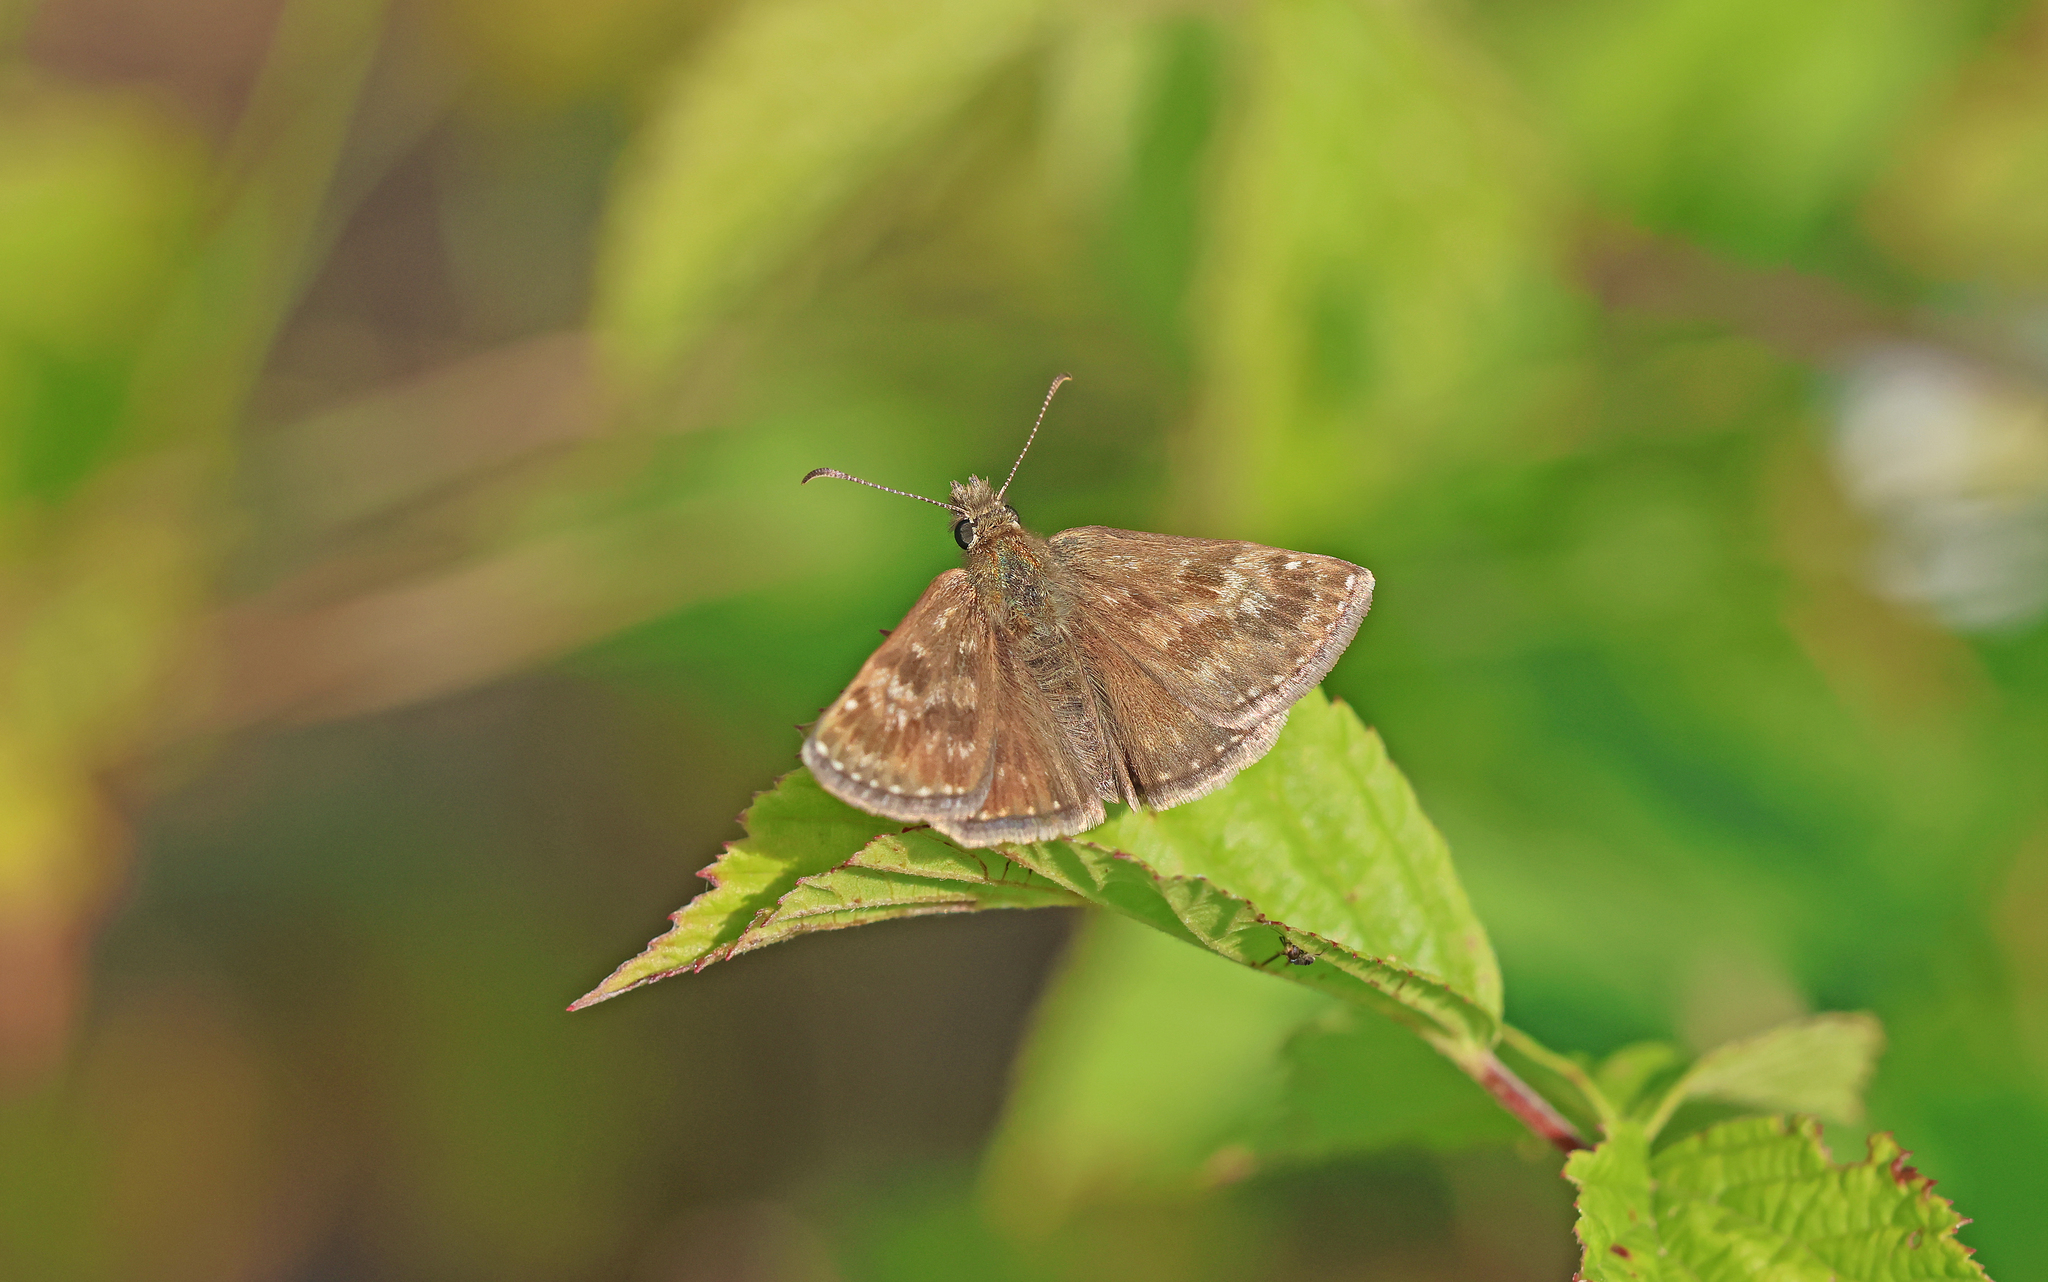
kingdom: Animalia
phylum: Arthropoda
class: Insecta
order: Lepidoptera
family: Hesperiidae
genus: Erynnis
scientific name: Erynnis tages
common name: Dingy skipper
